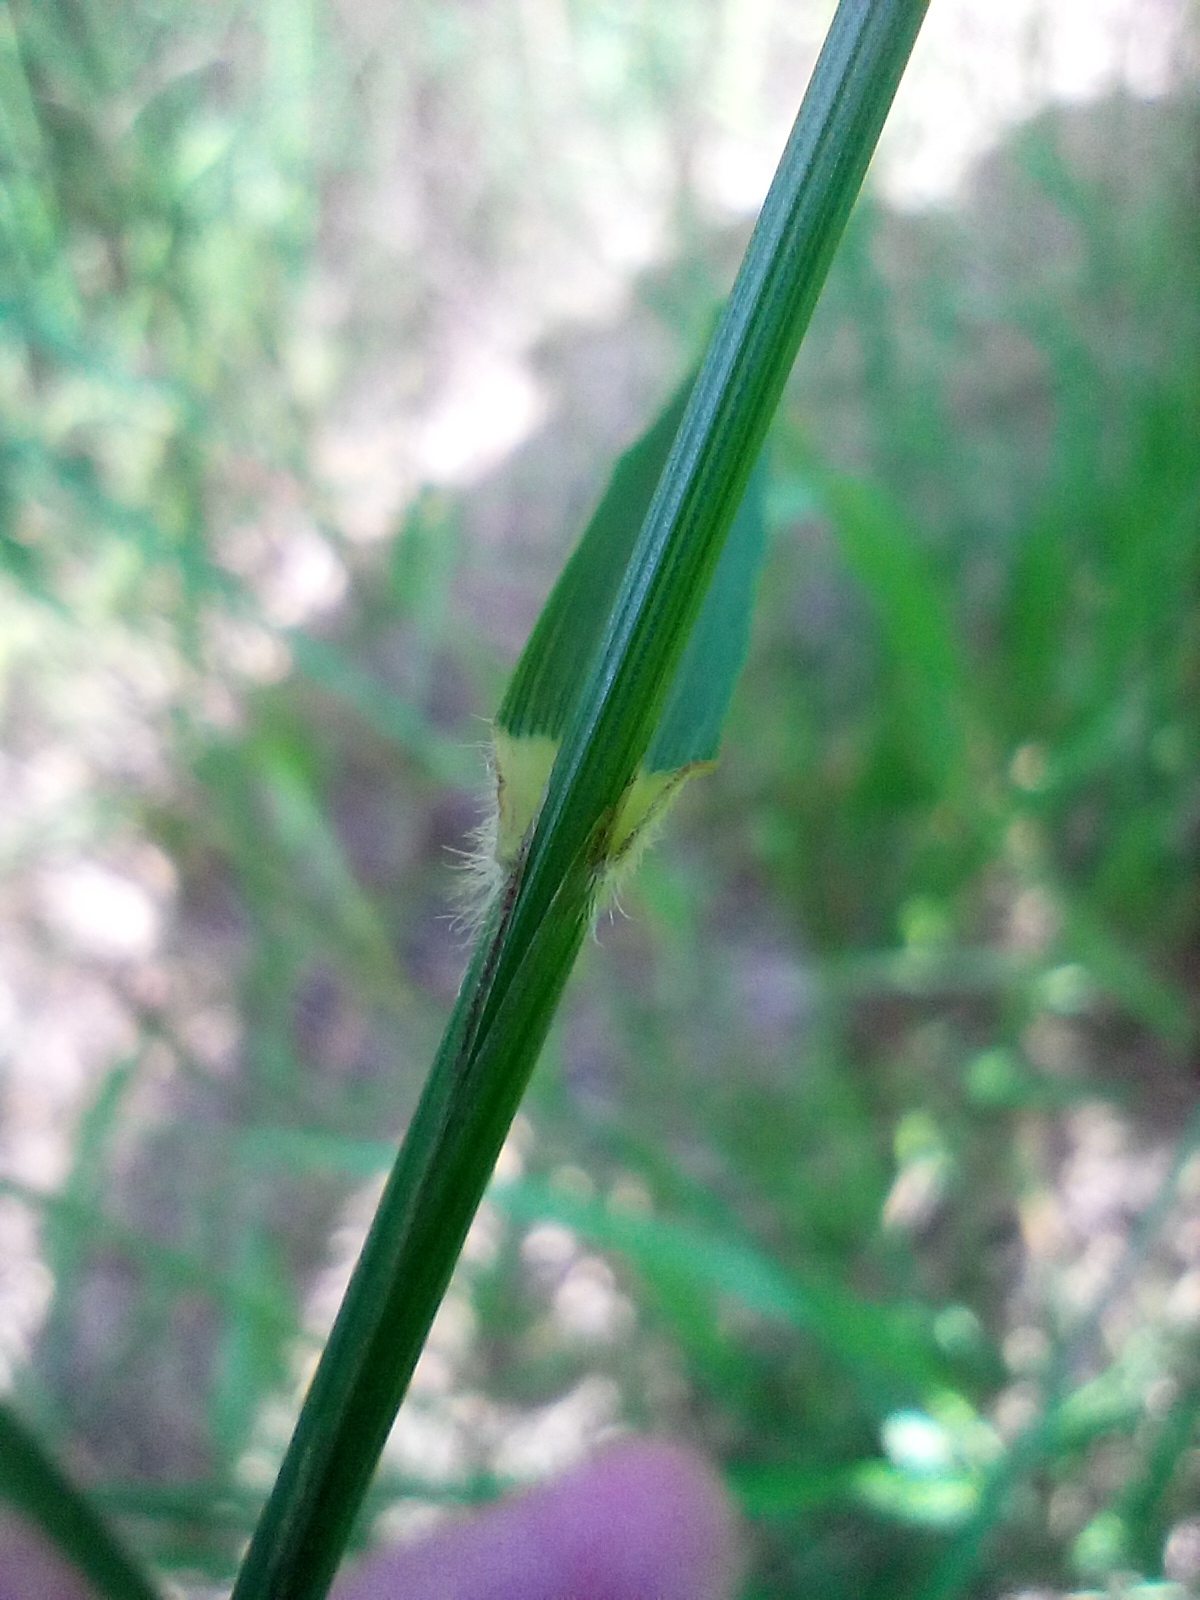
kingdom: Plantae
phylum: Tracheophyta
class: Liliopsida
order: Poales
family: Poaceae
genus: Calamagrostis
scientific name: Calamagrostis villosa
